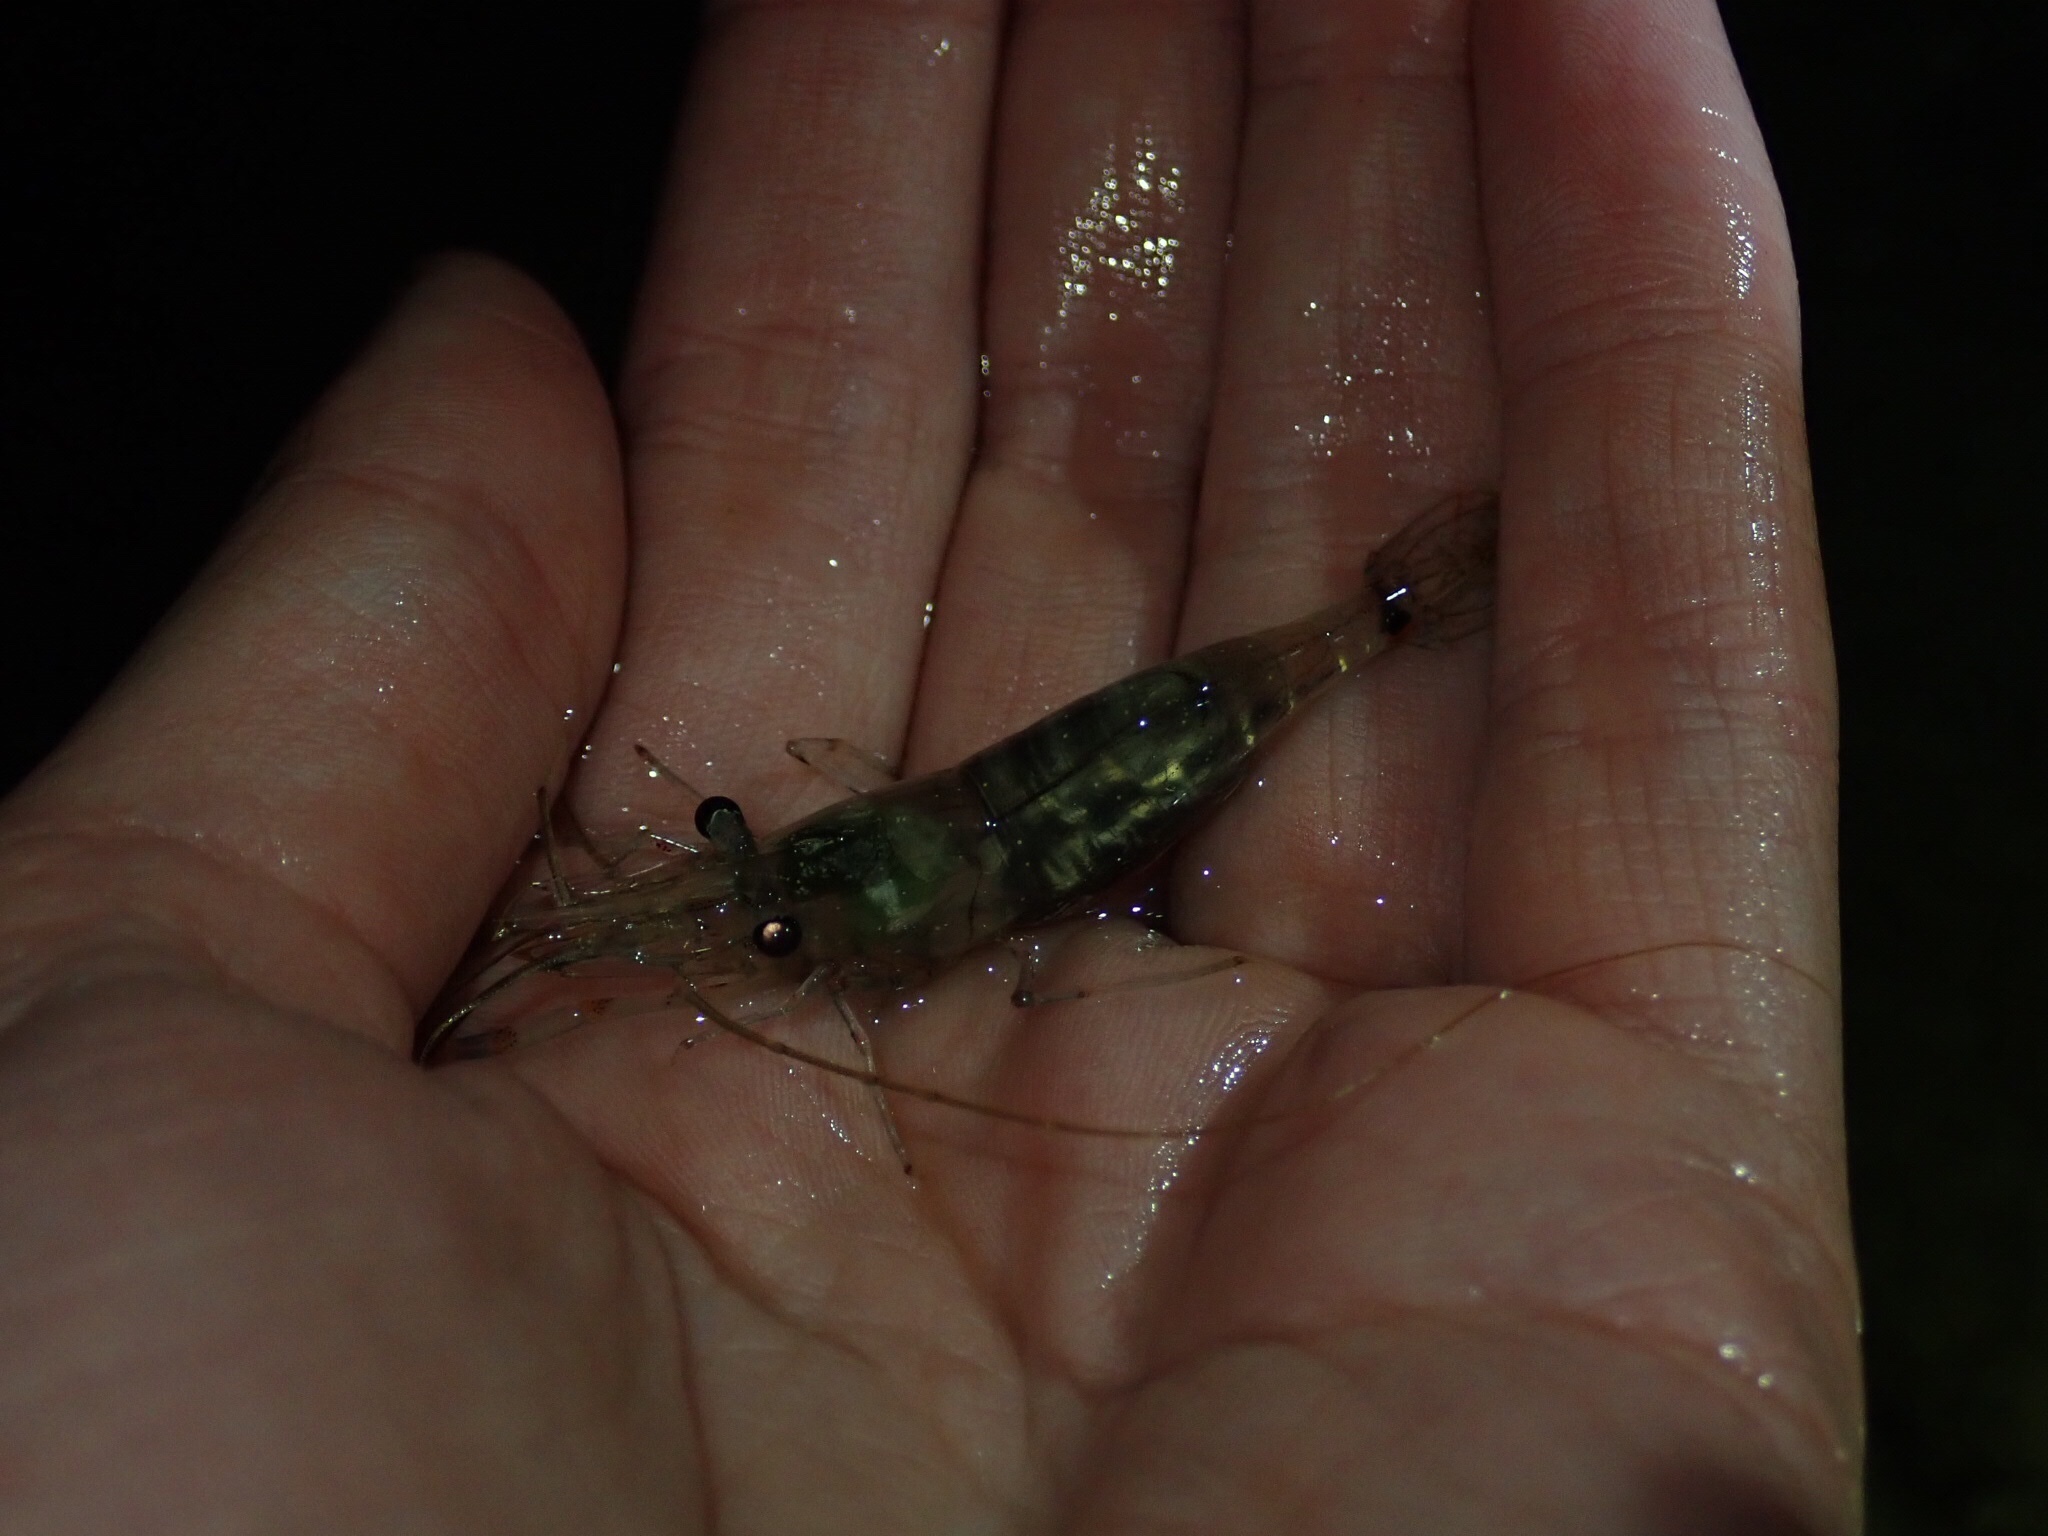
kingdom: Animalia
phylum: Arthropoda
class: Malacostraca
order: Decapoda
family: Palaemonidae
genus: Palaemon
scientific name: Palaemon affinis
